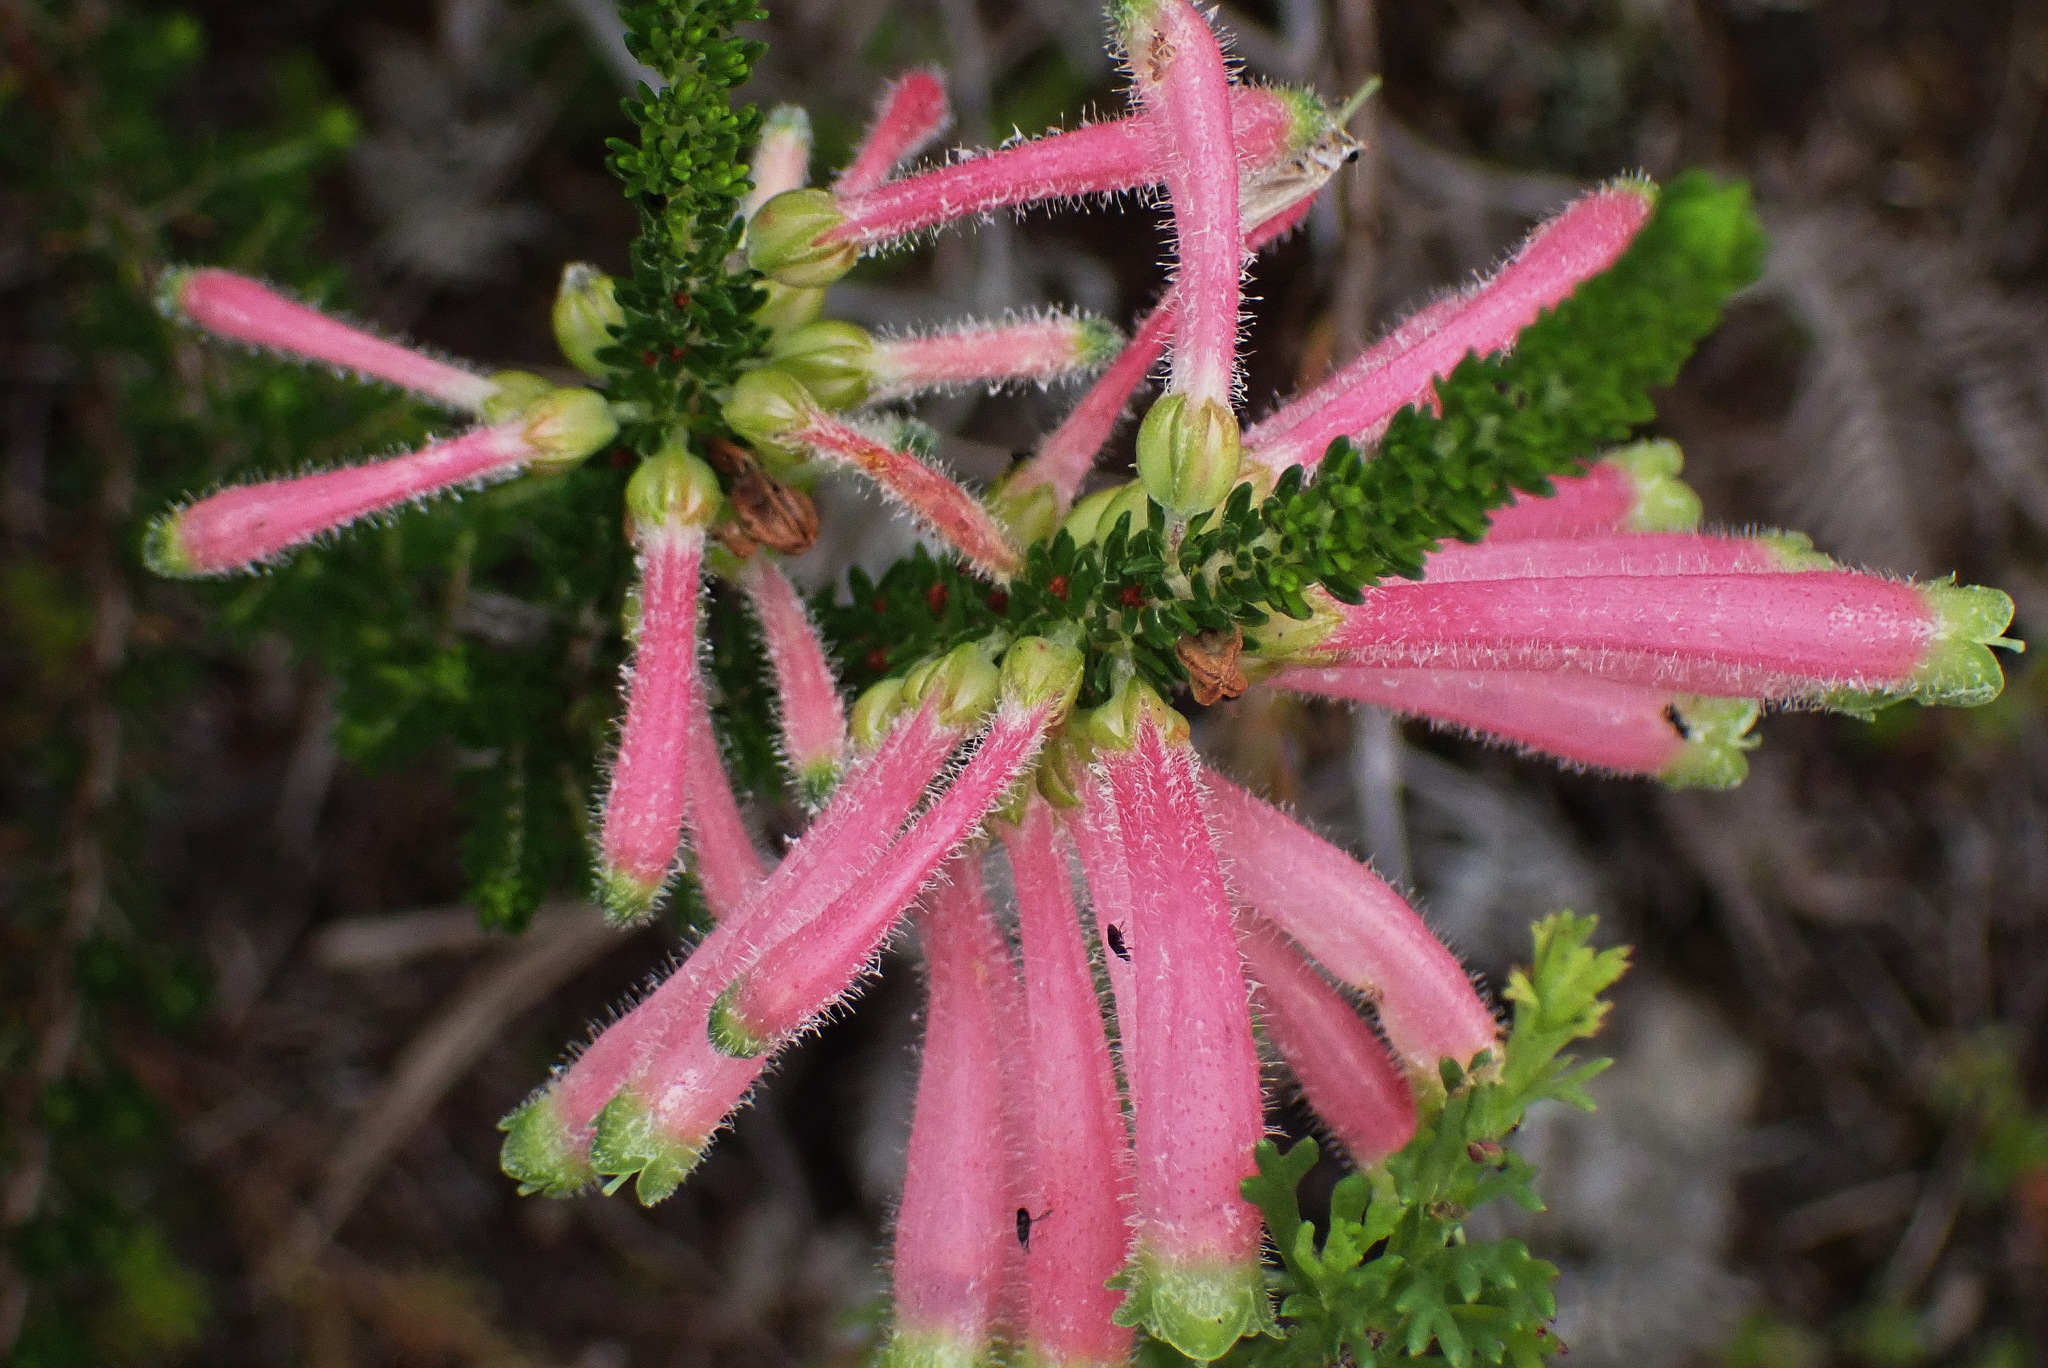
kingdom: Plantae
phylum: Tracheophyta
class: Magnoliopsida
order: Ericales
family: Ericaceae
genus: Erica
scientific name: Erica densifolia
